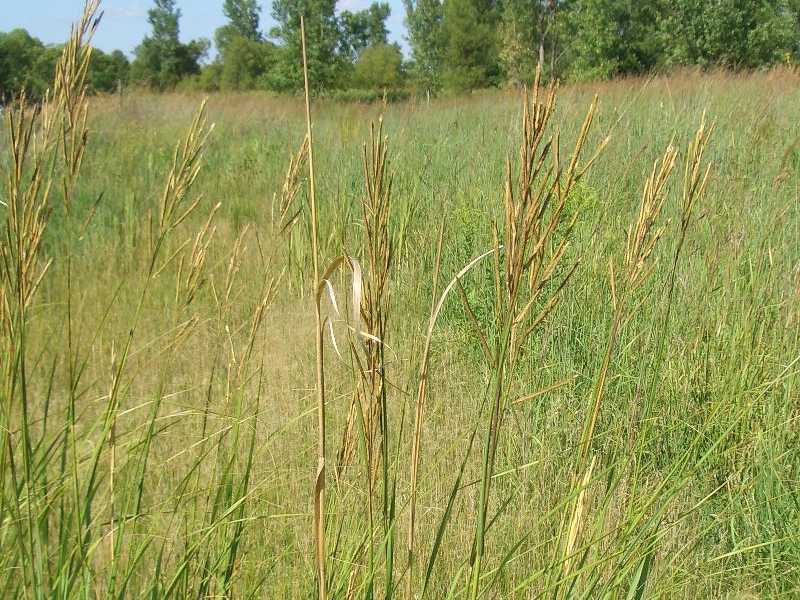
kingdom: Plantae
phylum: Tracheophyta
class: Liliopsida
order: Poales
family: Poaceae
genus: Sporobolus
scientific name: Sporobolus michauxianus
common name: Freshwater cordgrass
